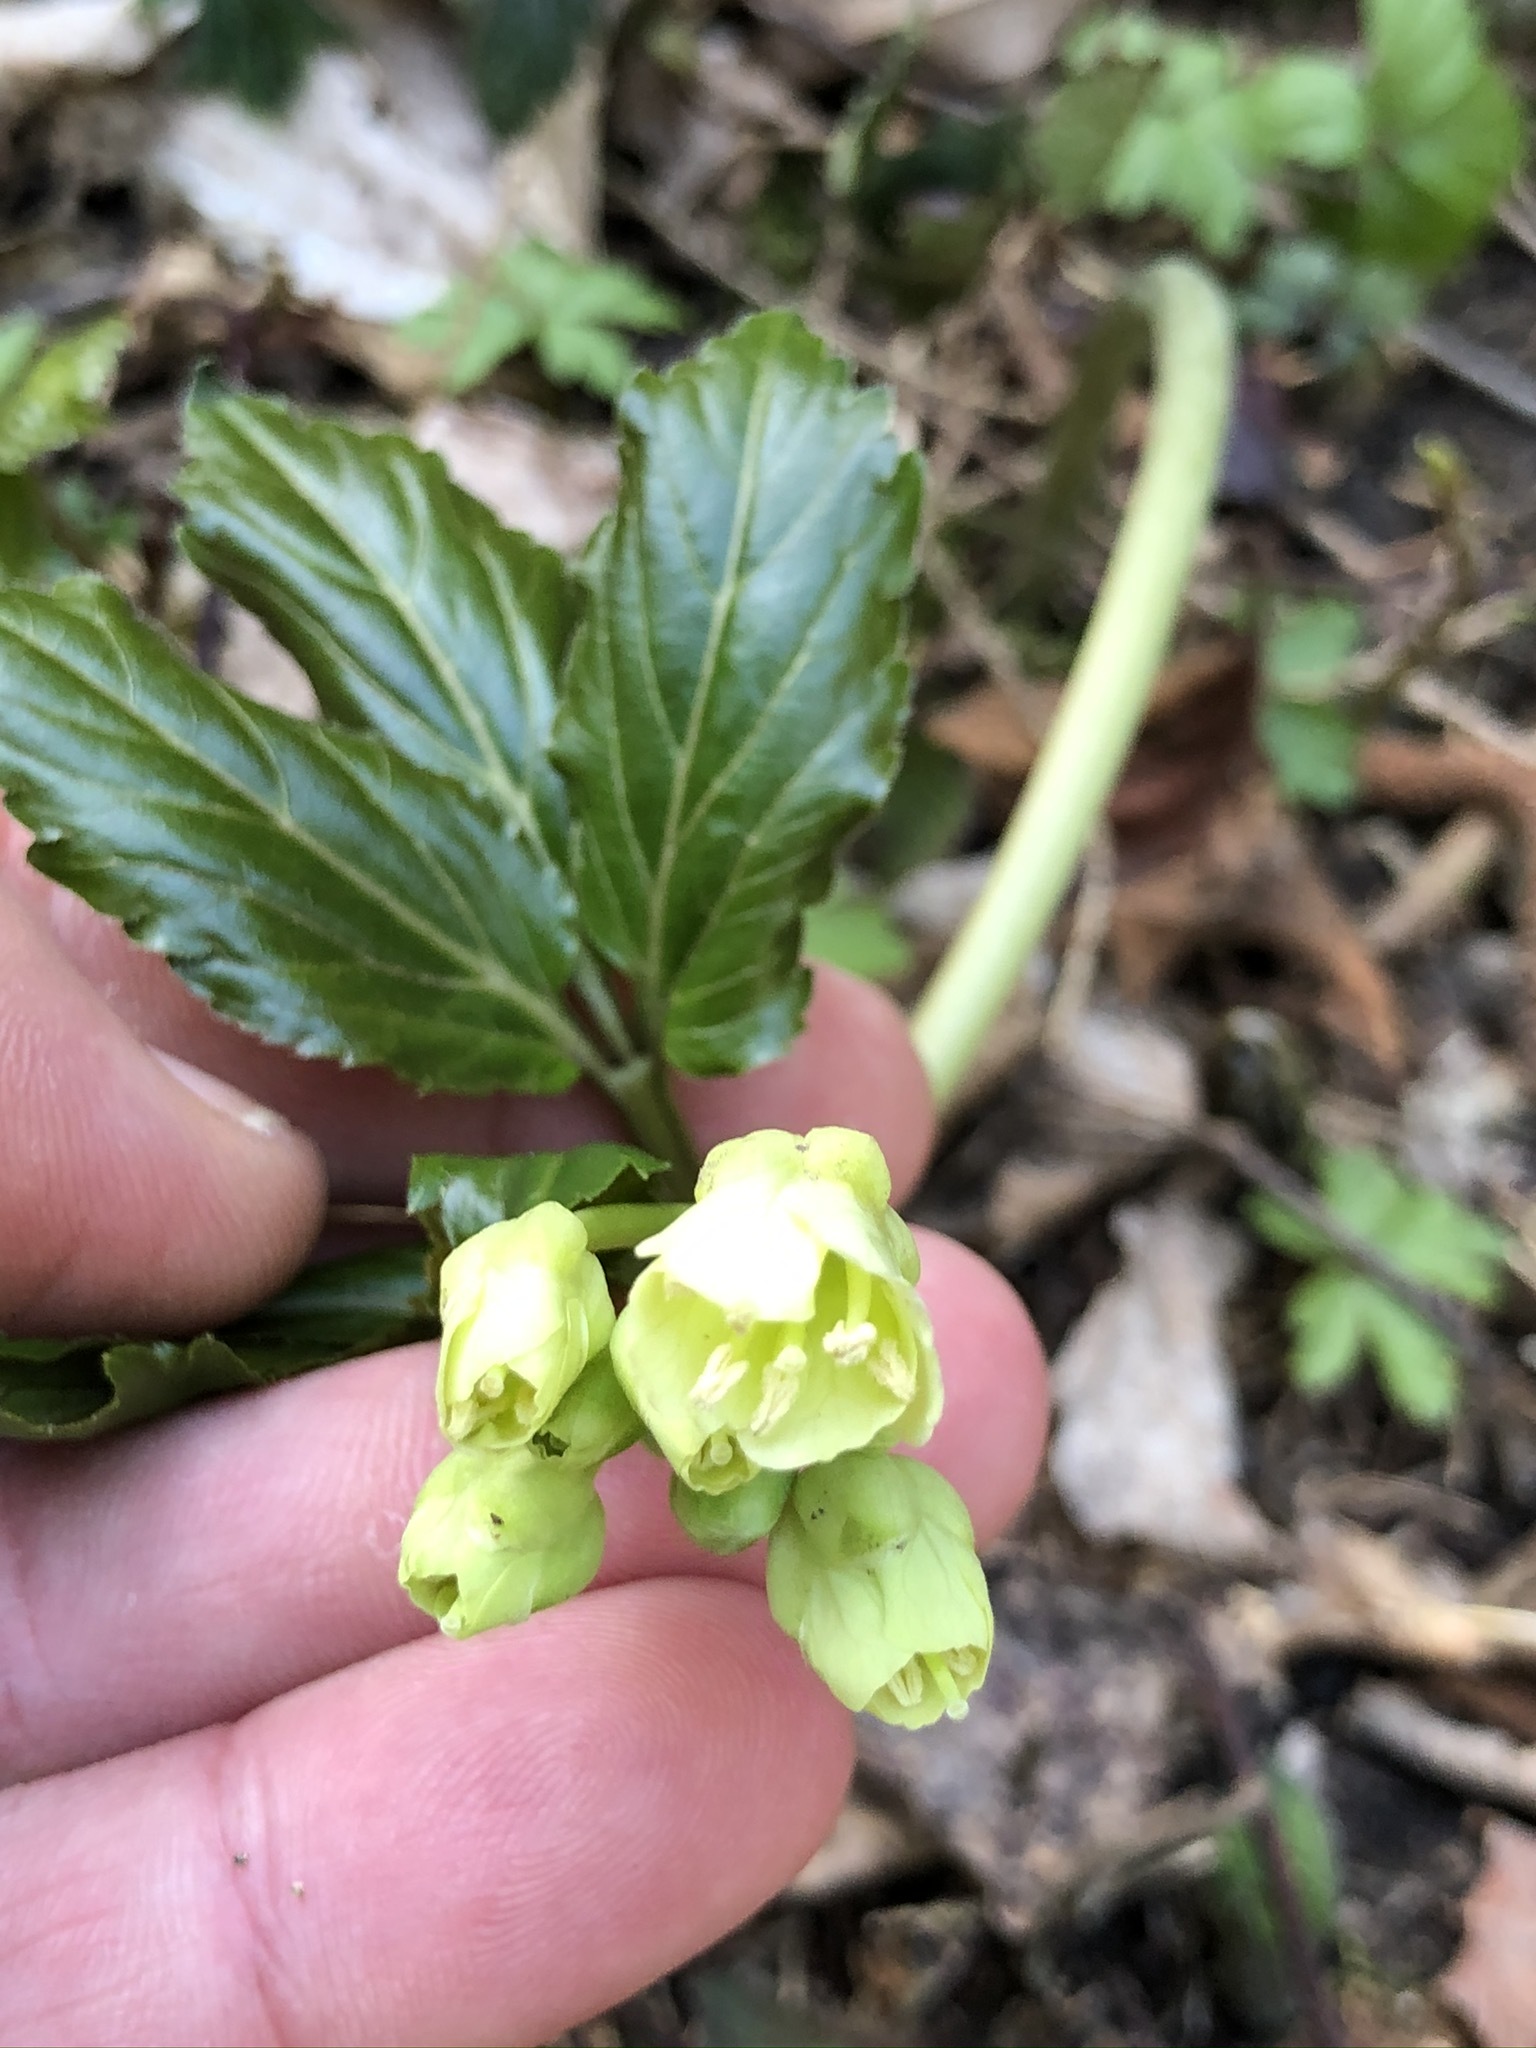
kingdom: Plantae
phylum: Tracheophyta
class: Magnoliopsida
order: Brassicales
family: Brassicaceae
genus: Cardamine
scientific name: Cardamine enneaphyllos
